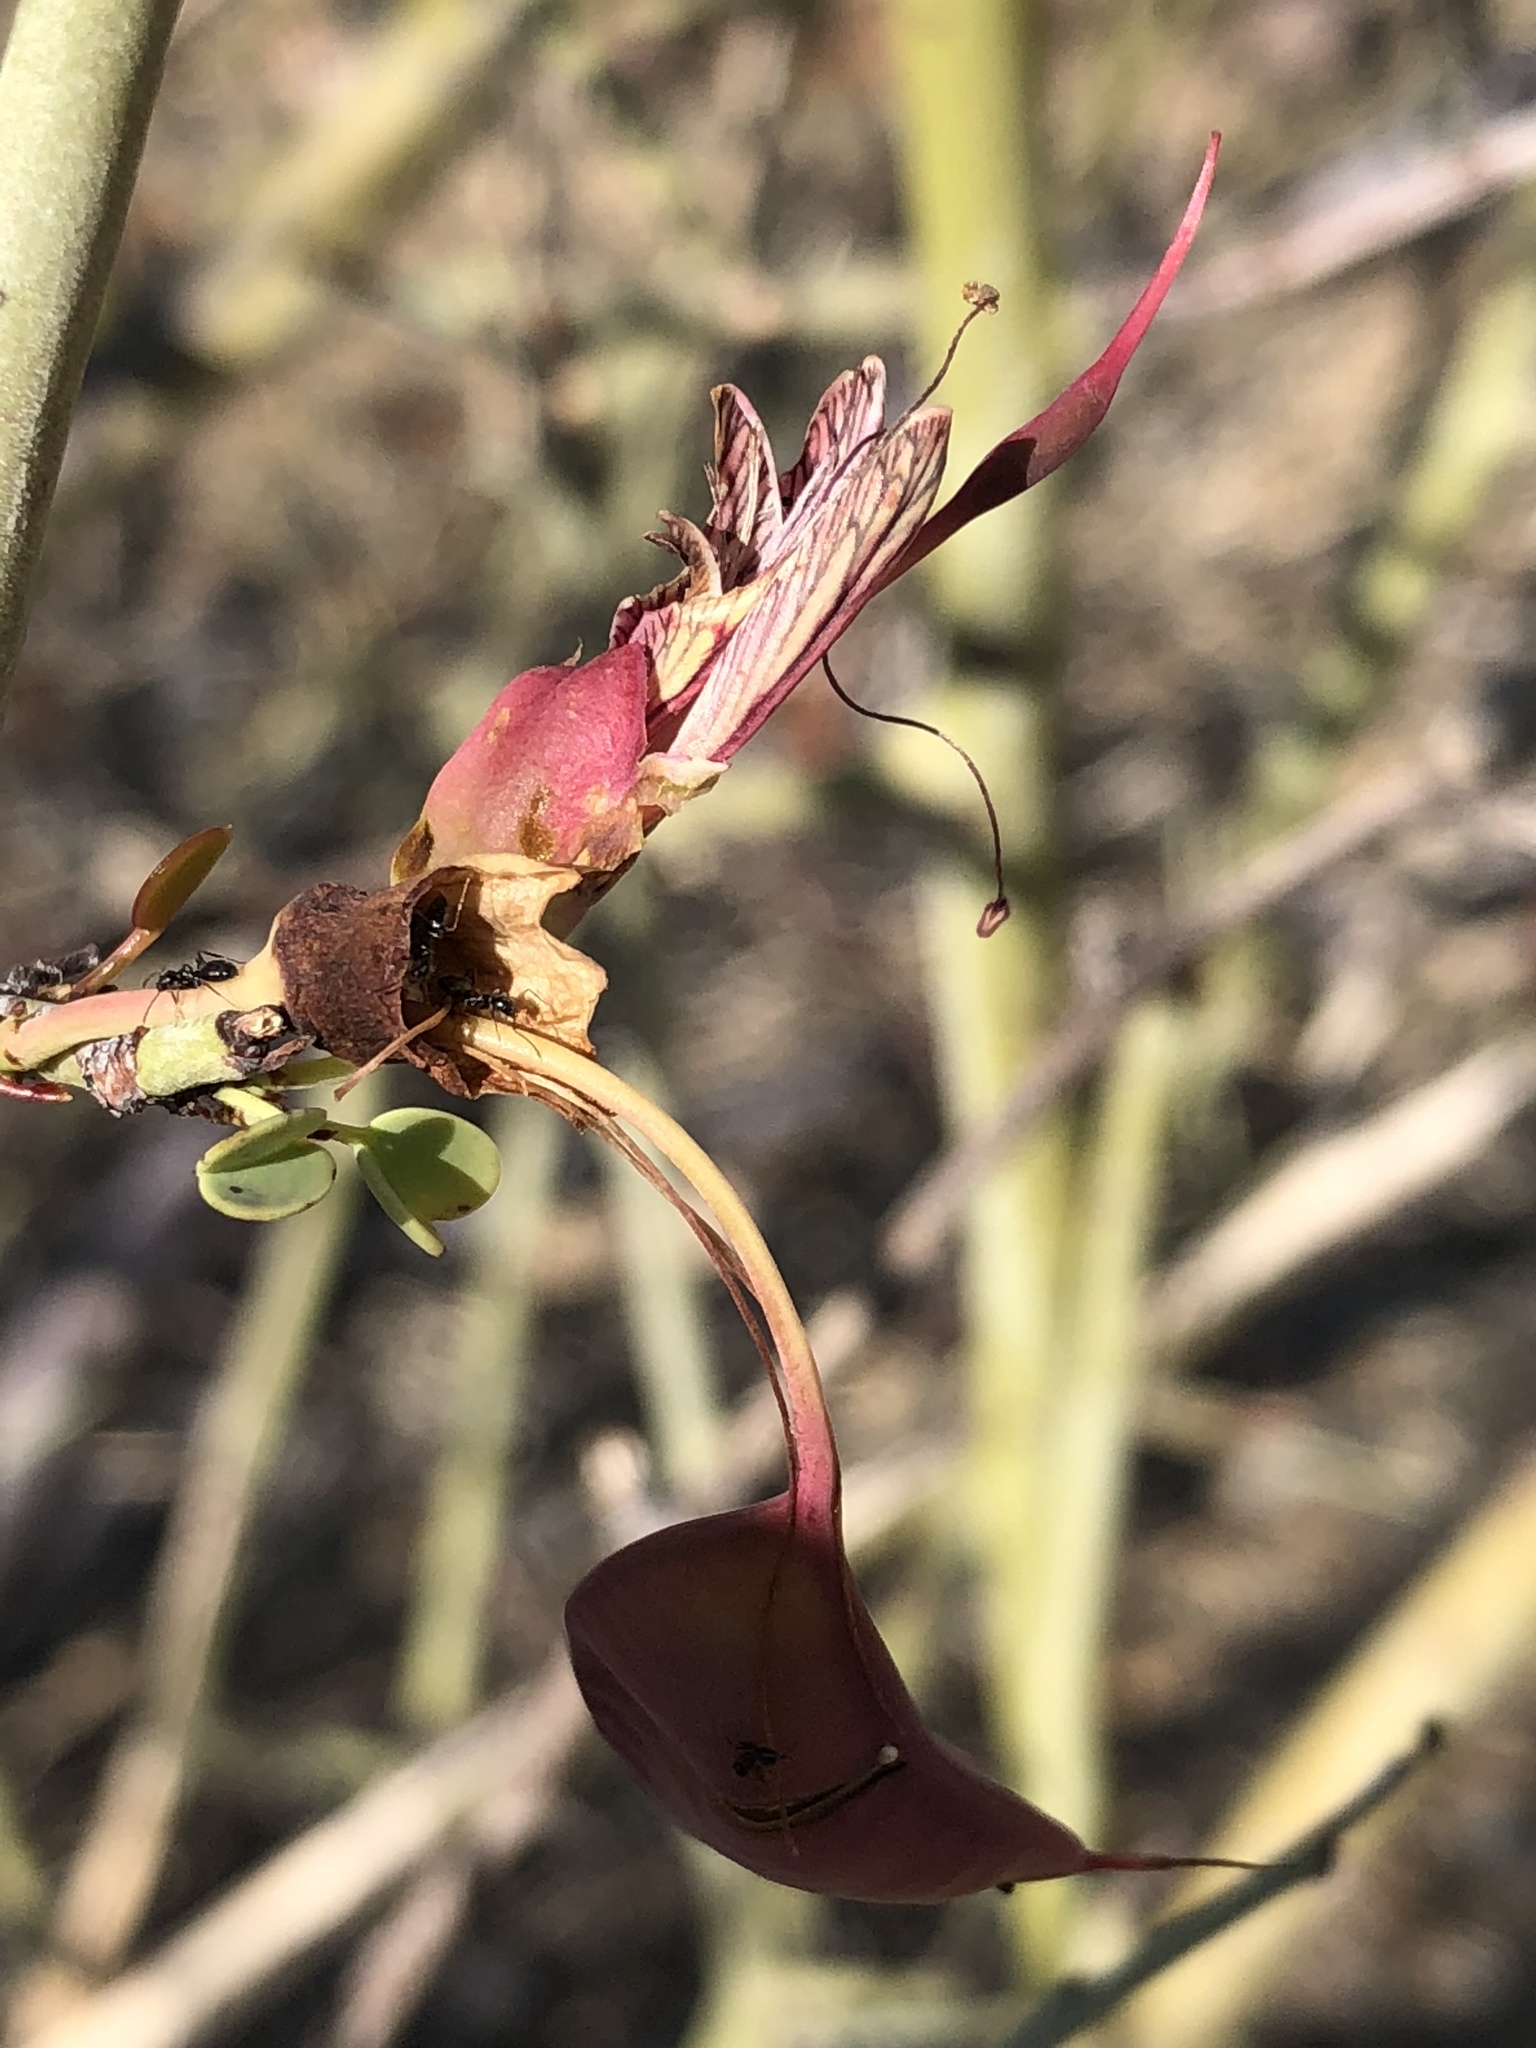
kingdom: Plantae
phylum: Tracheophyta
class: Magnoliopsida
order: Fabales
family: Fabaceae
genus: Adenolobus
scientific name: Adenolobus garipensis
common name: Butterfly-leaf
